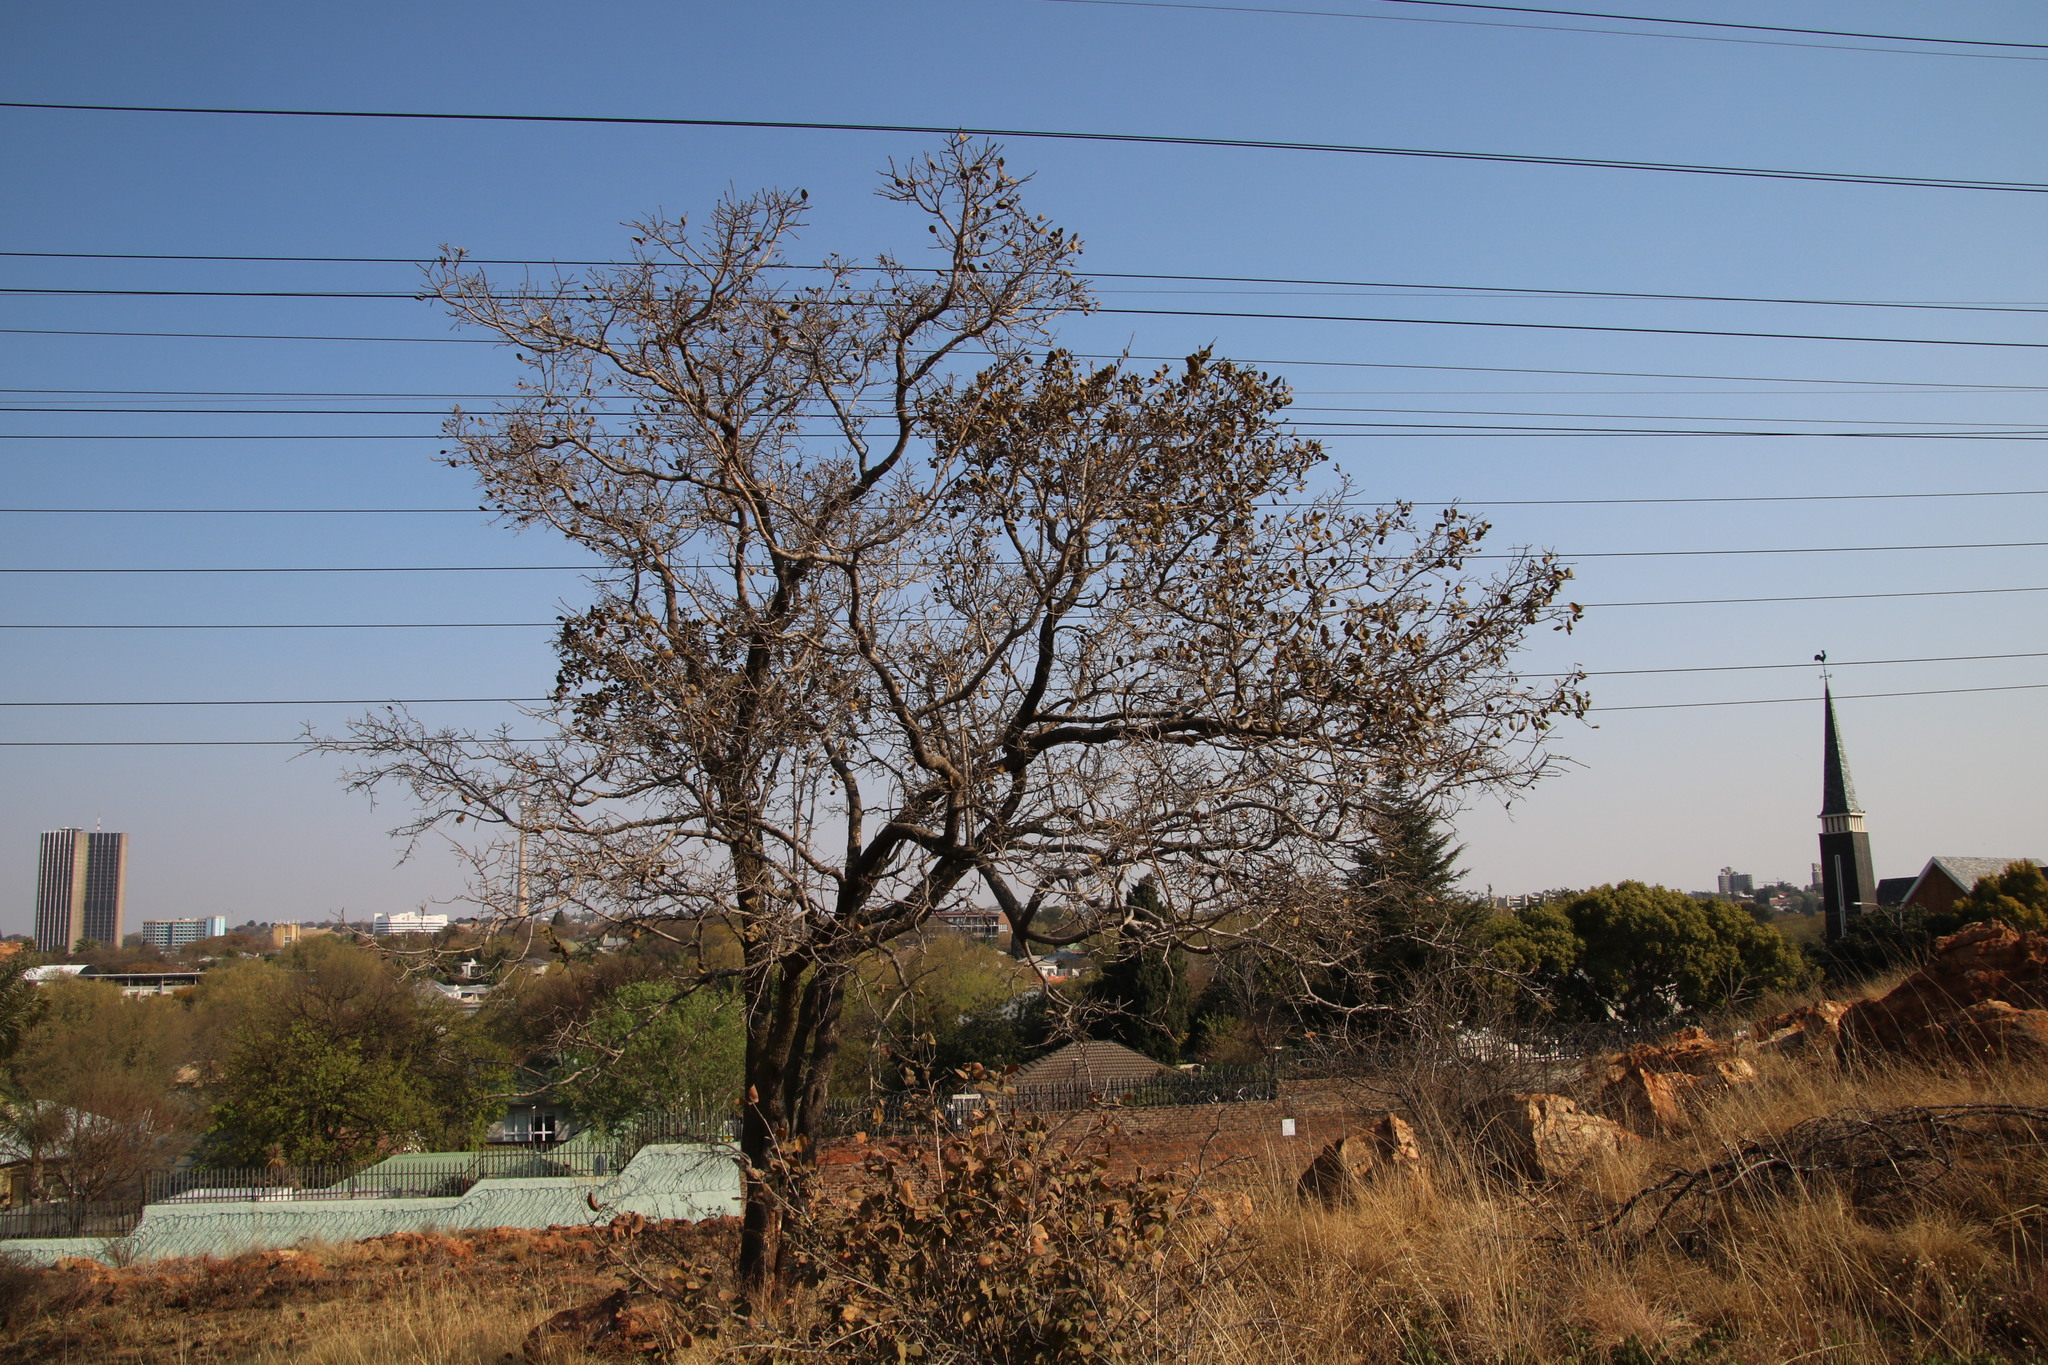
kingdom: Plantae
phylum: Tracheophyta
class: Magnoliopsida
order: Myrtales
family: Combretaceae
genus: Combretum
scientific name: Combretum molle
